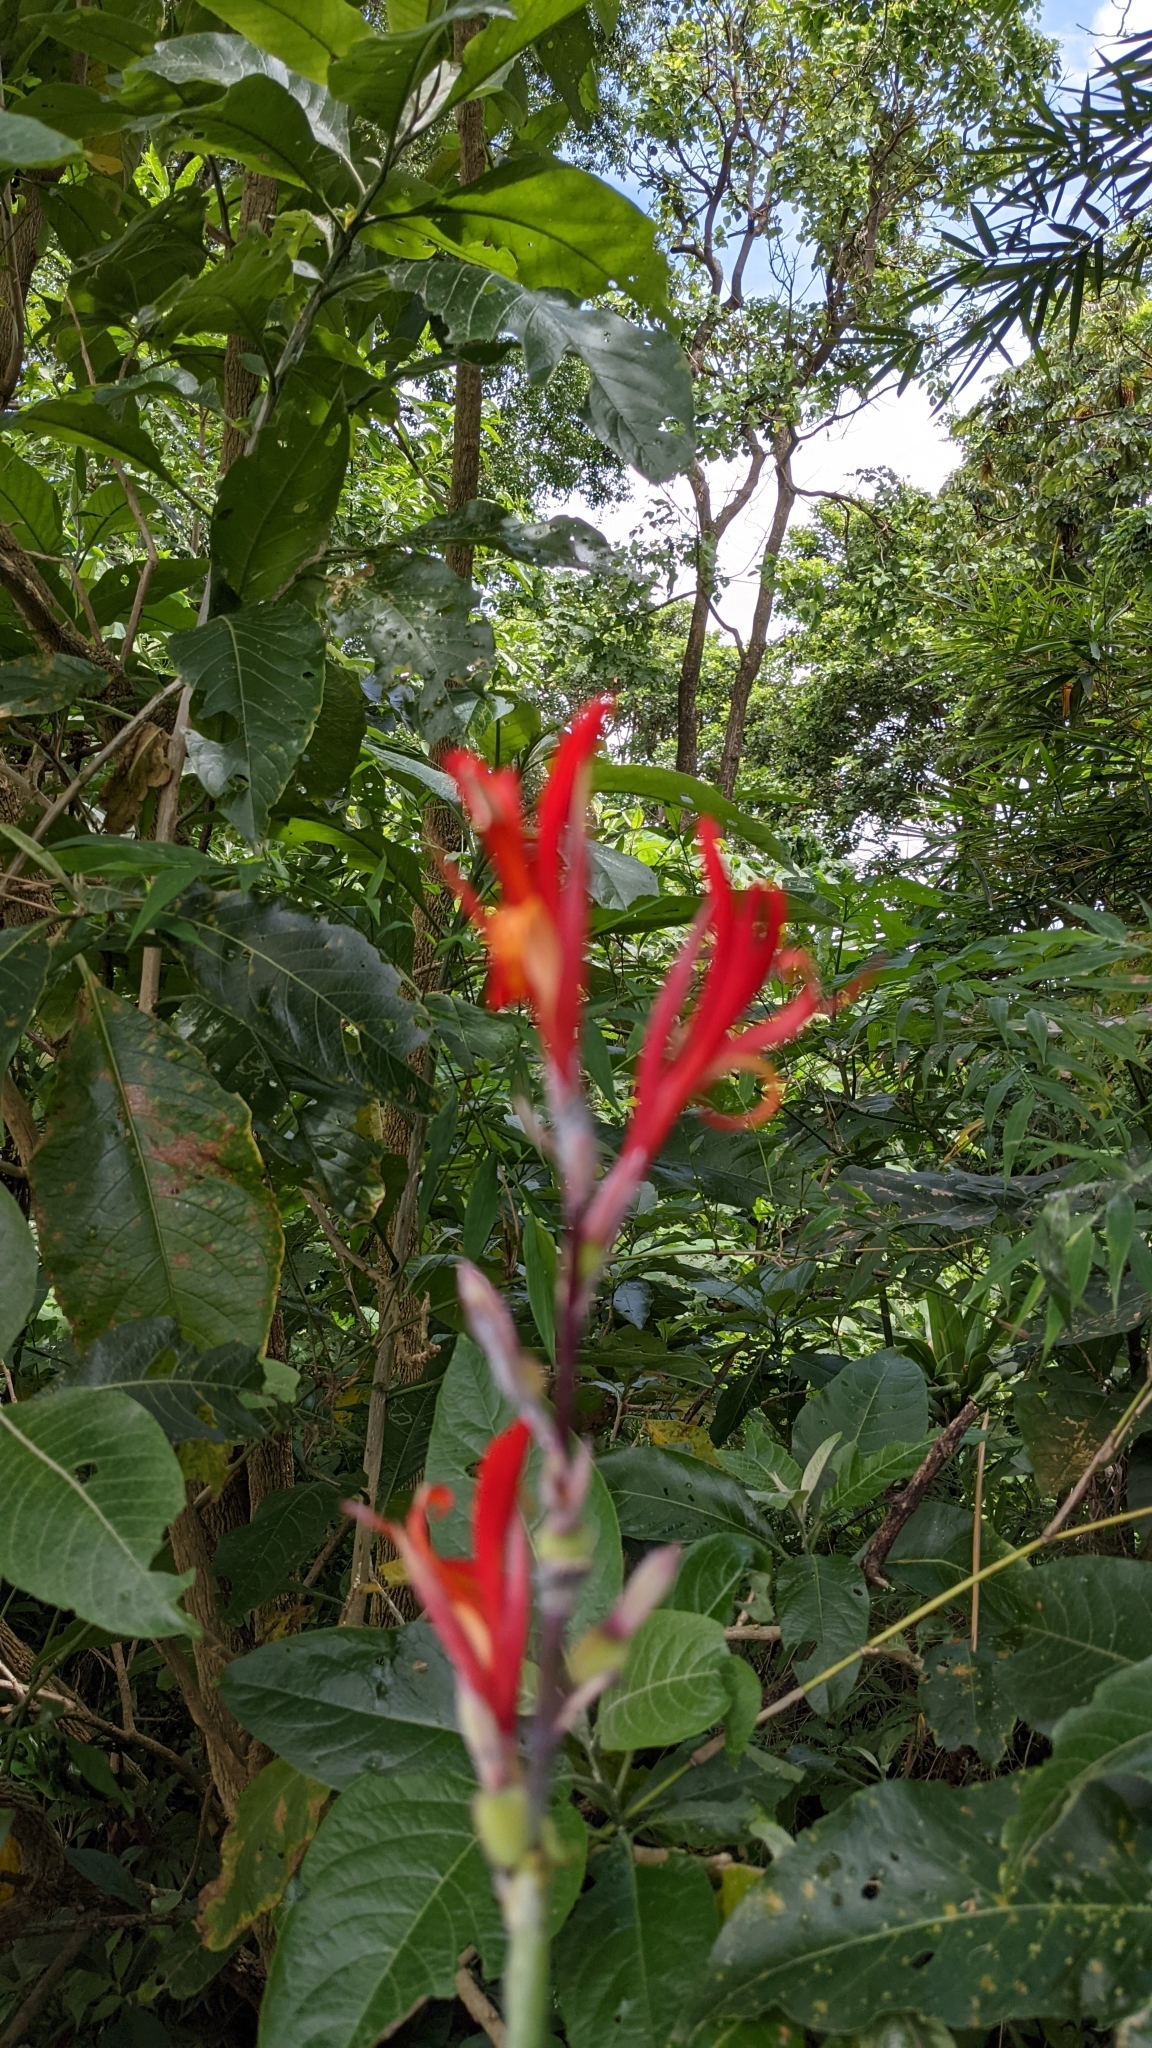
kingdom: Plantae
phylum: Tracheophyta
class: Liliopsida
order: Zingiberales
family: Cannaceae
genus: Canna
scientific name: Canna indica
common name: Indian shot
